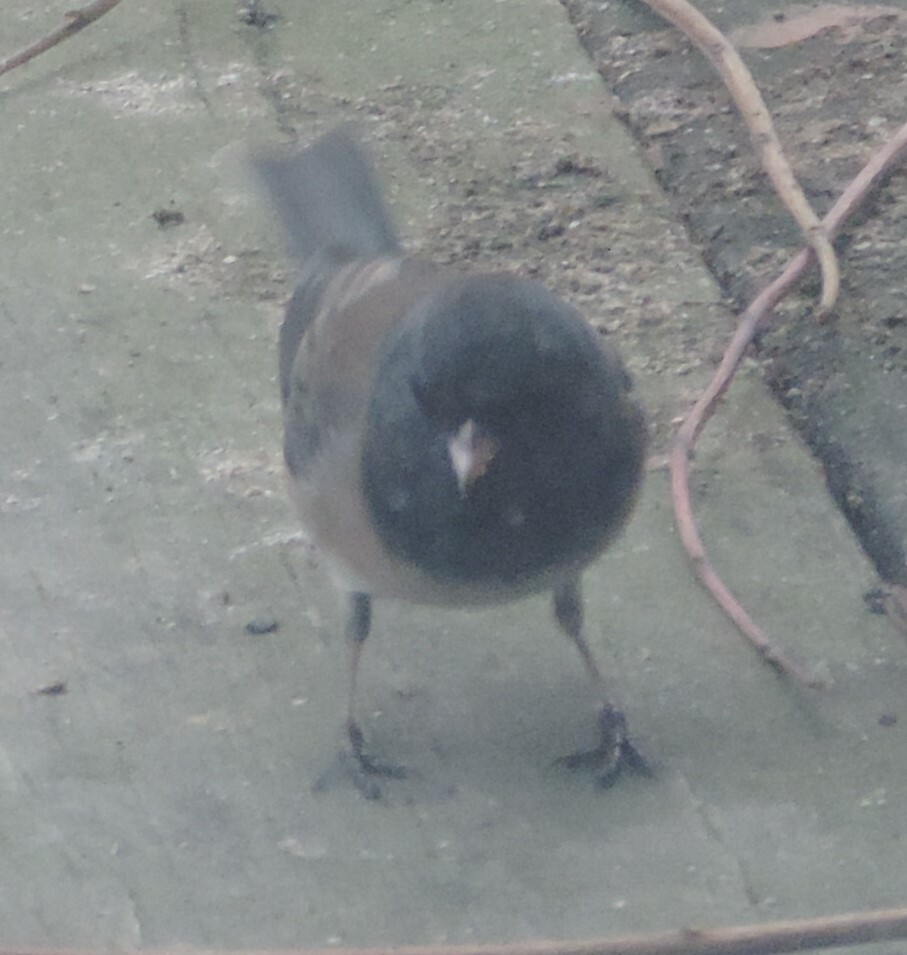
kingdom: Animalia
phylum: Chordata
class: Aves
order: Passeriformes
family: Passerellidae
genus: Junco
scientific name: Junco hyemalis
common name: Dark-eyed junco
